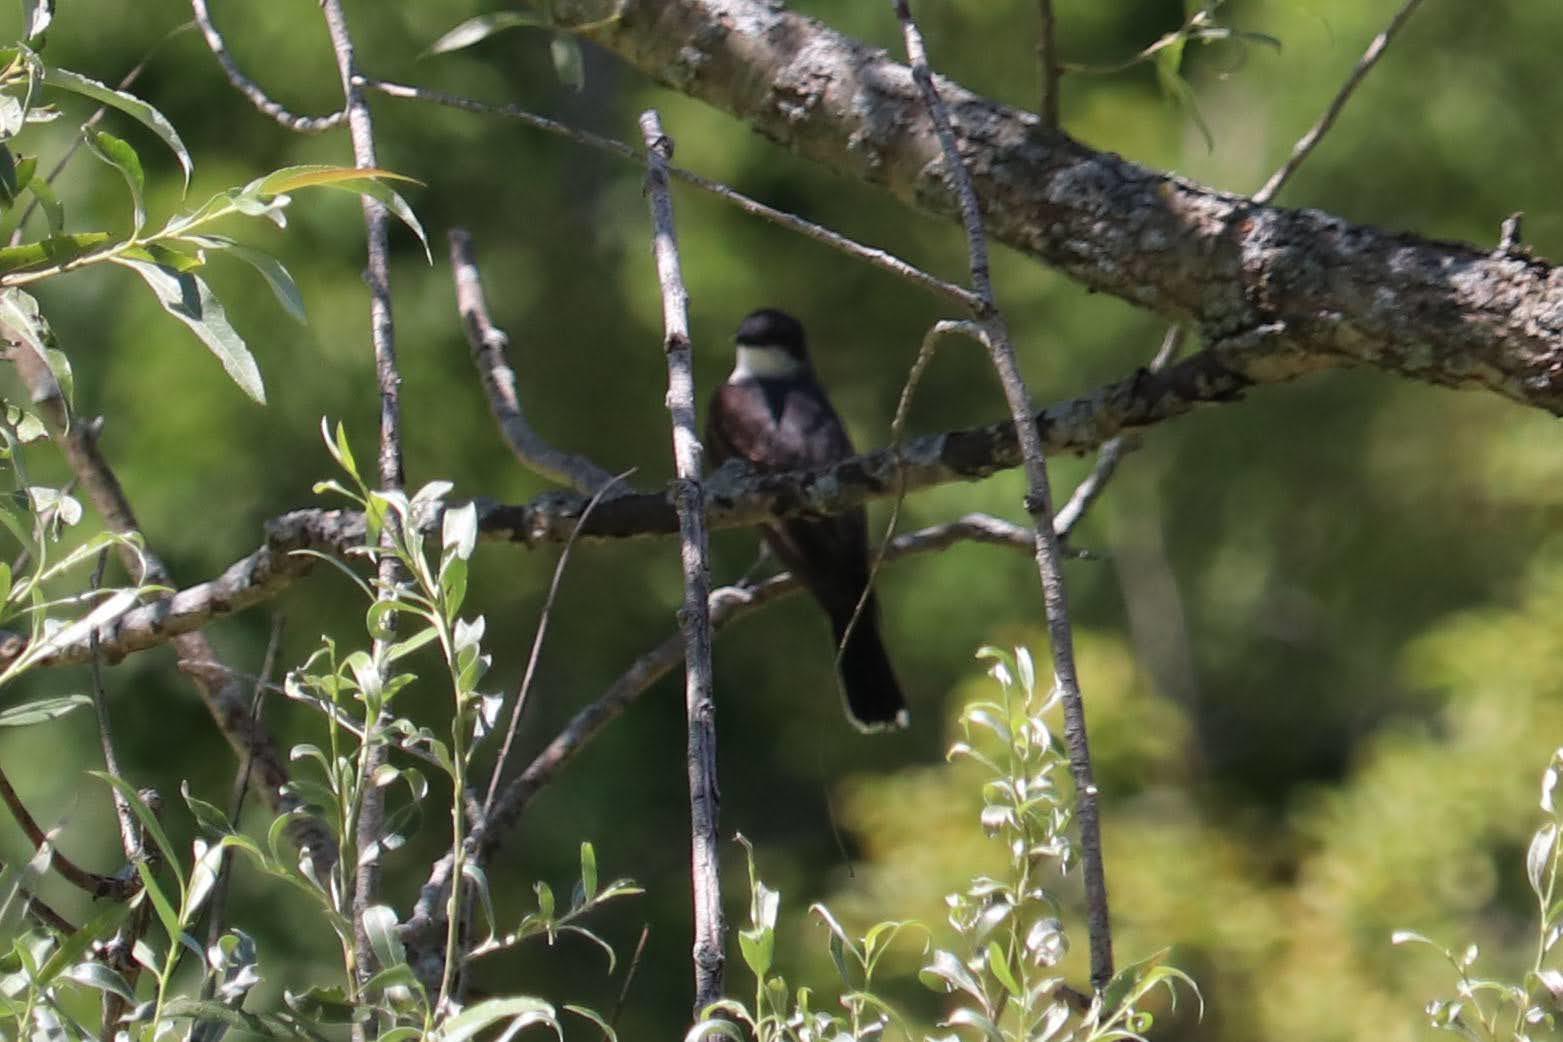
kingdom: Animalia
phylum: Chordata
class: Aves
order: Passeriformes
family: Tyrannidae
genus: Tyrannus
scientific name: Tyrannus tyrannus
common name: Eastern kingbird
